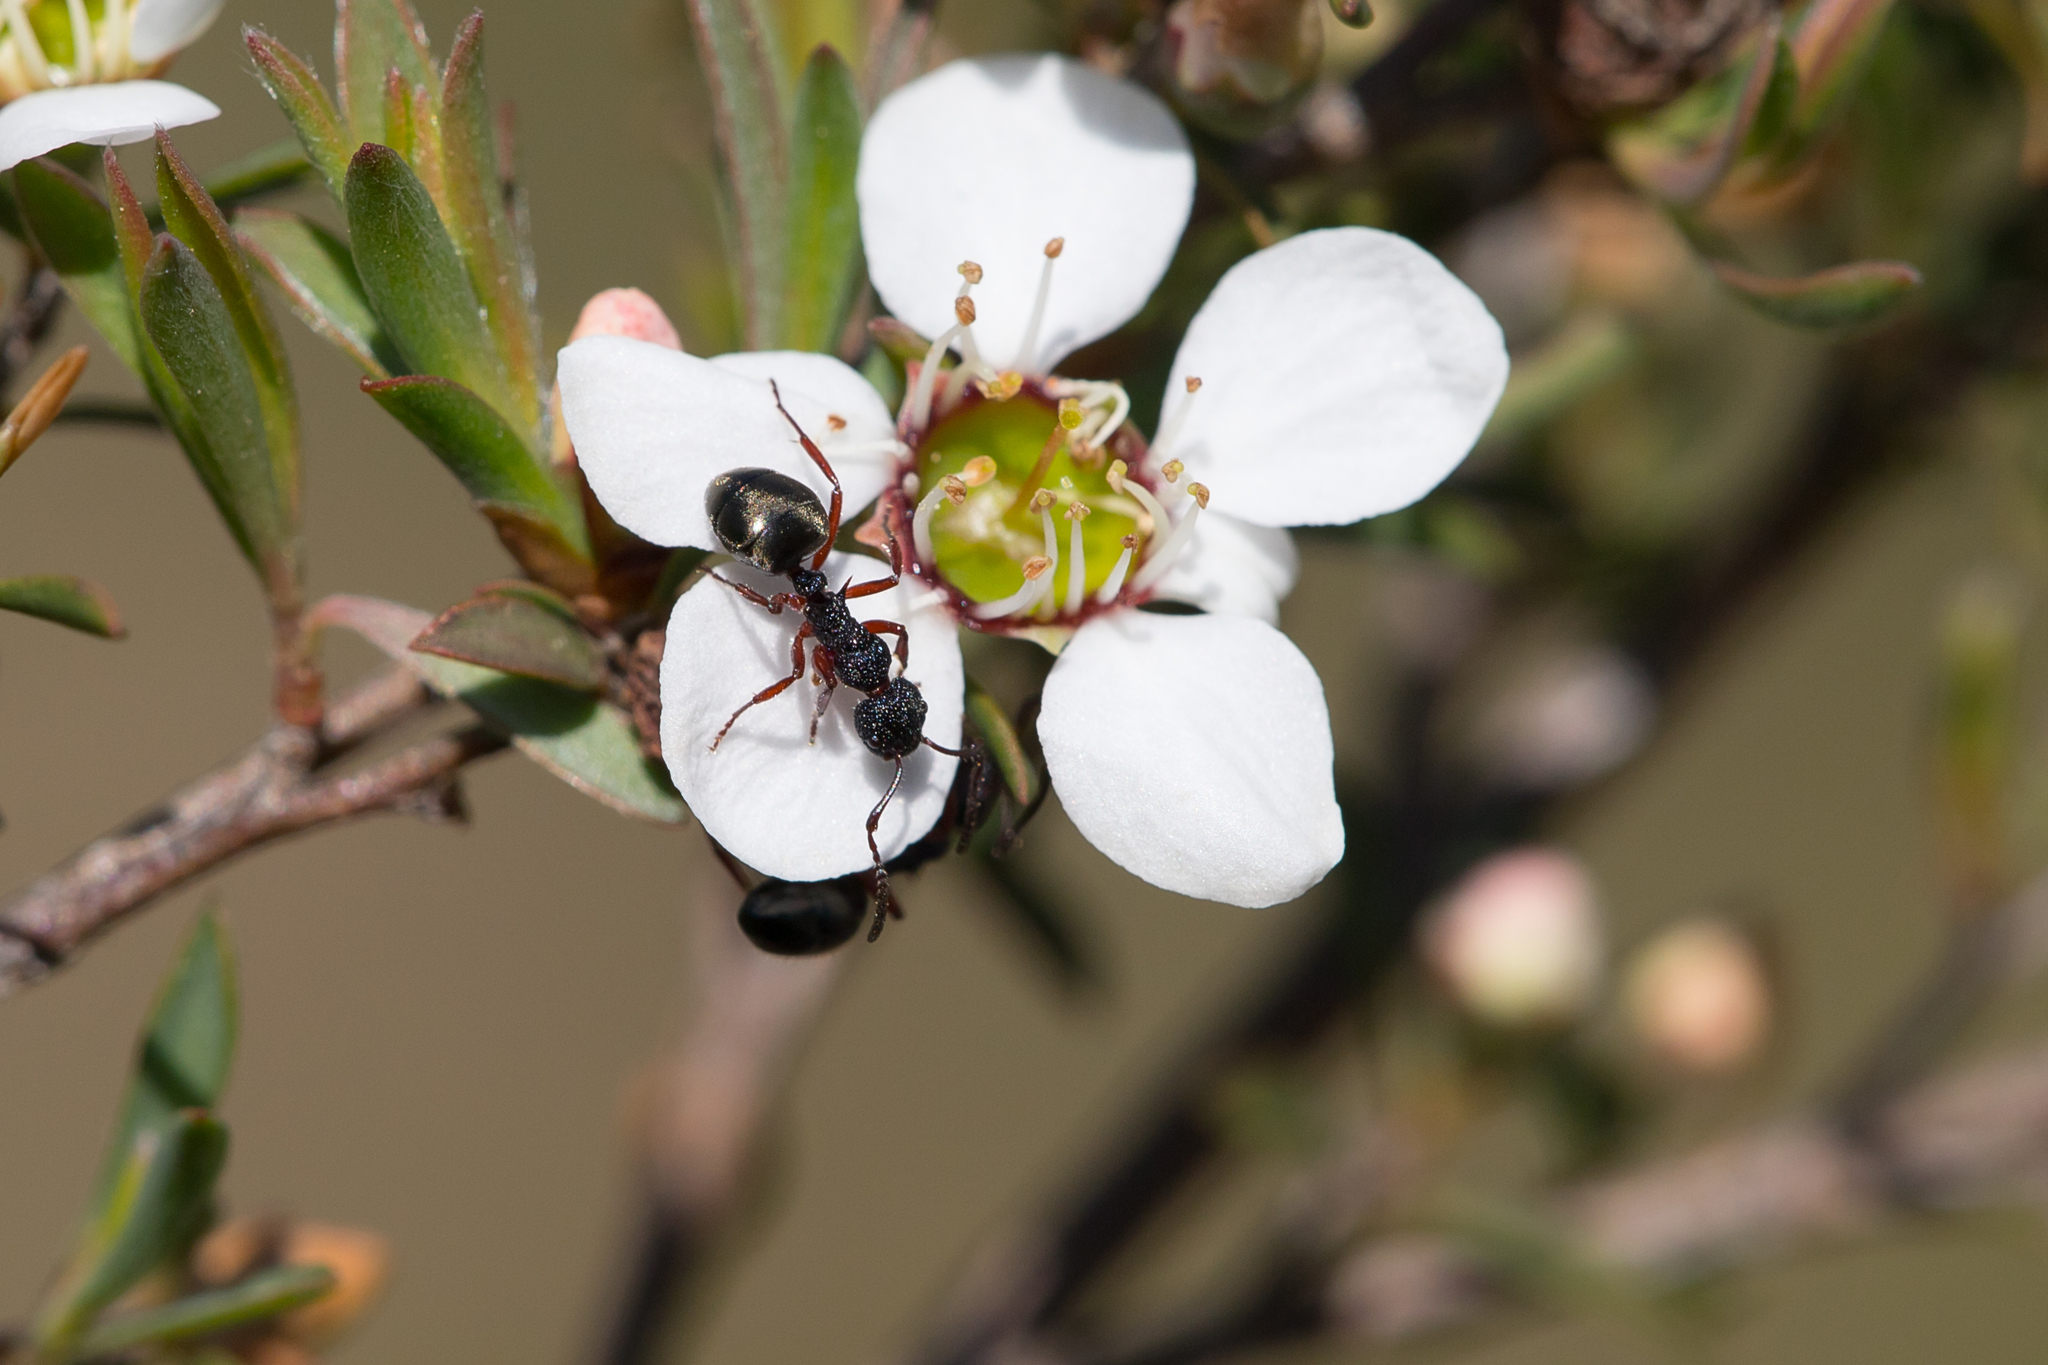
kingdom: Animalia
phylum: Arthropoda
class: Insecta
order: Hymenoptera
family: Formicidae
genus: Dolichoderus
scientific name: Dolichoderus scabridus
